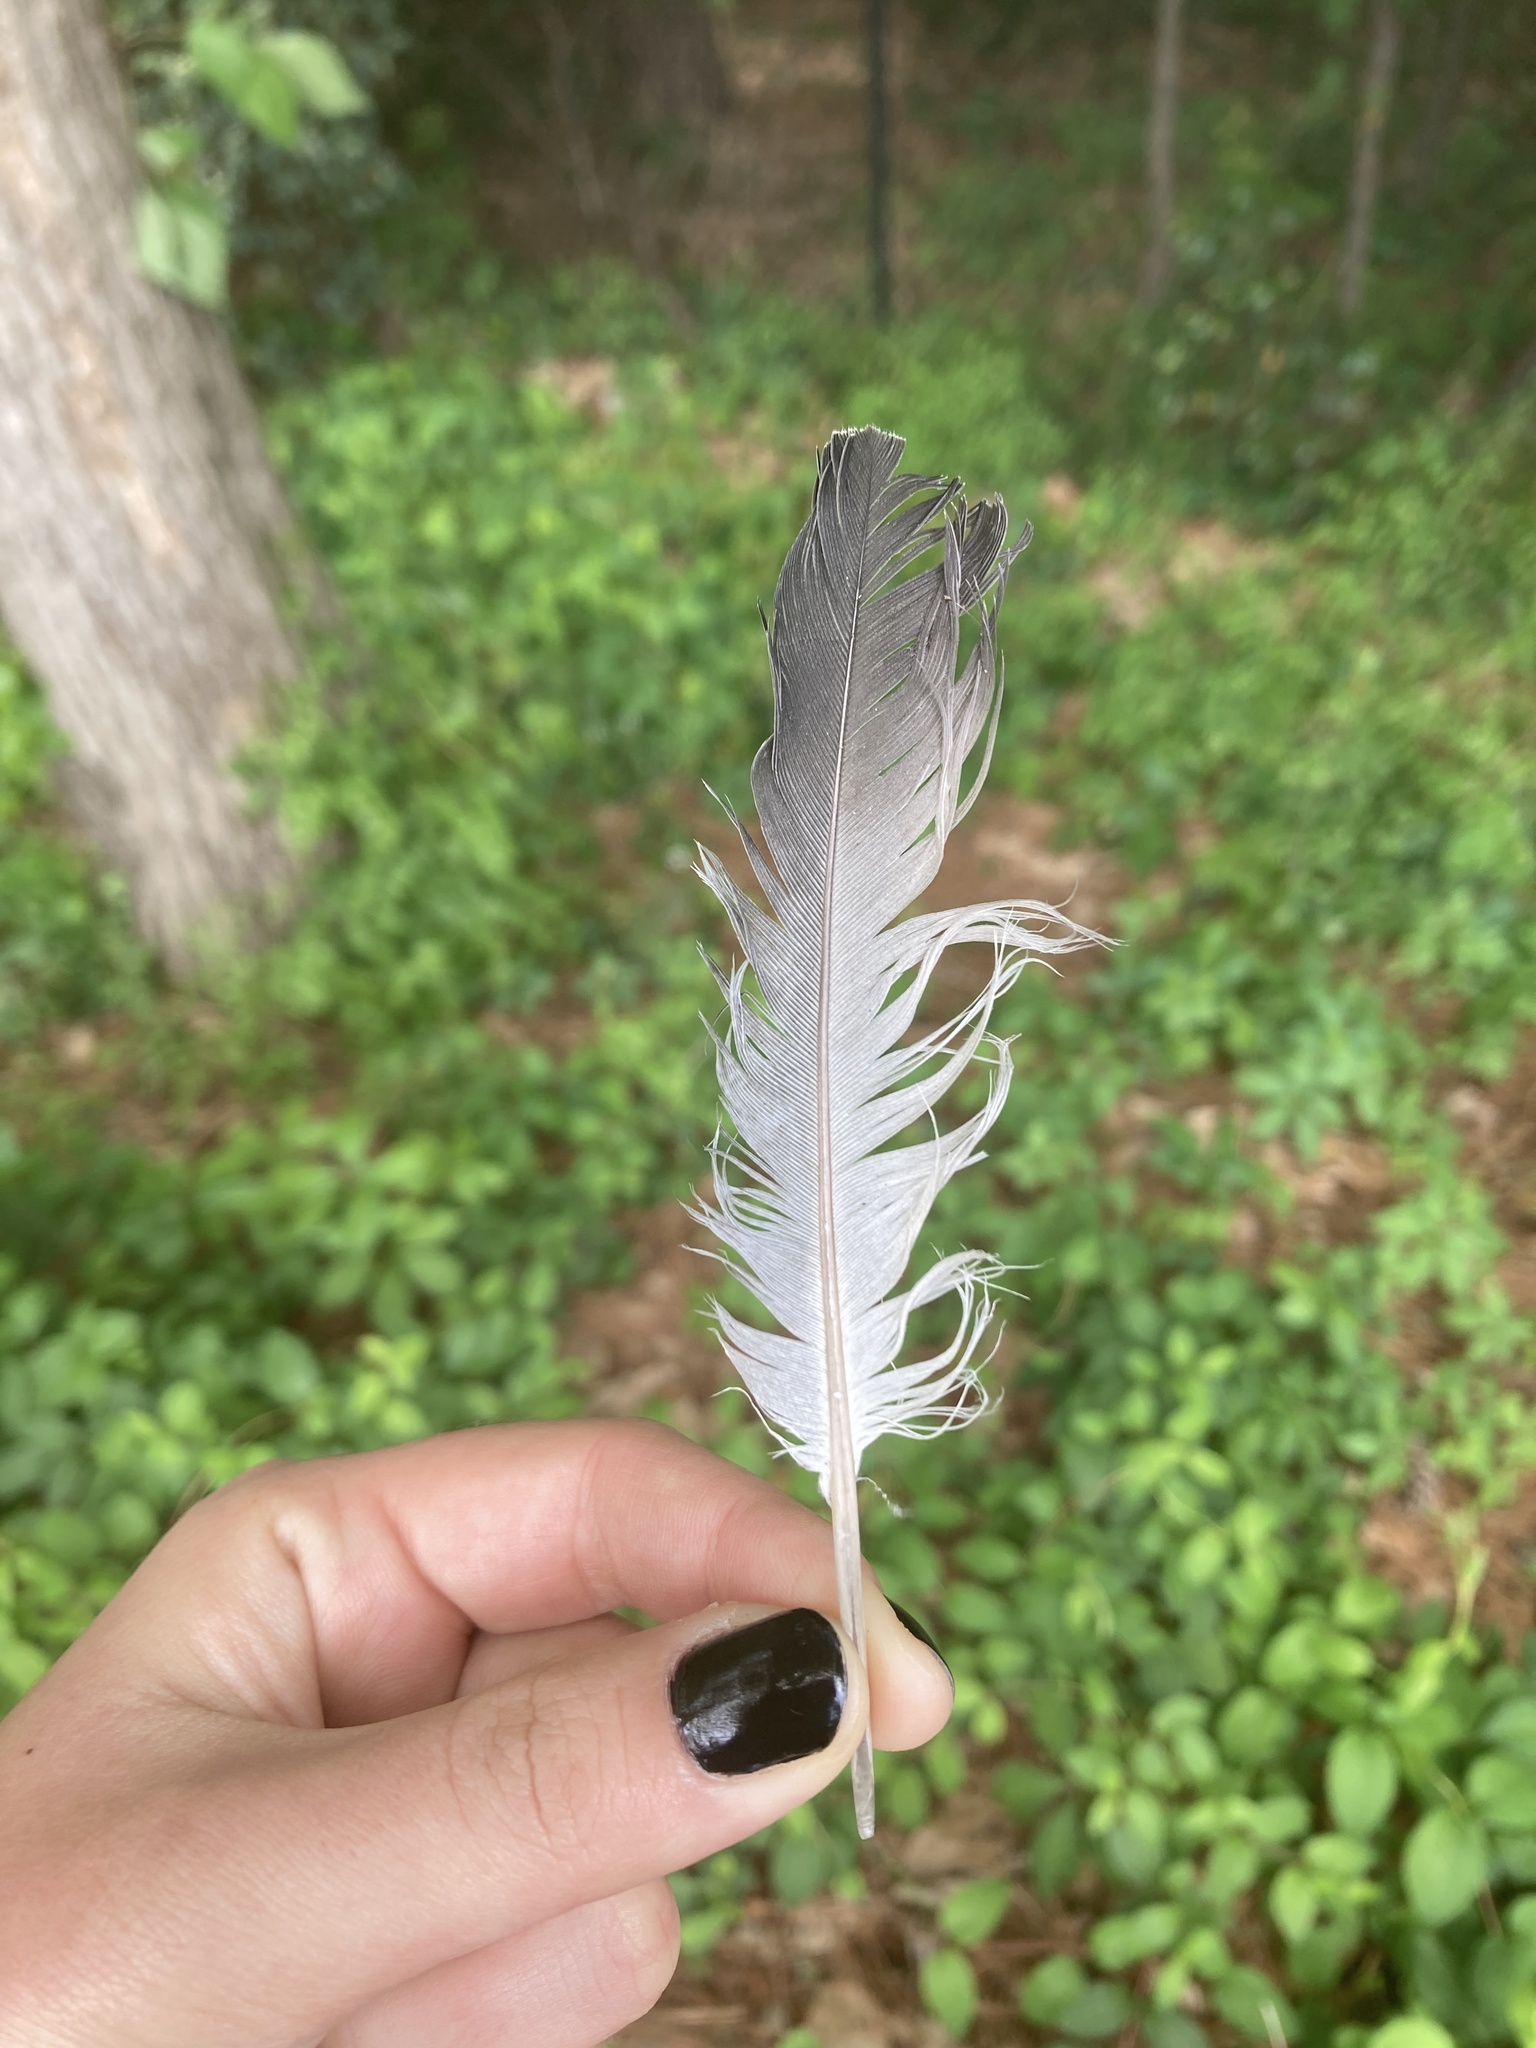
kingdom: Animalia
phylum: Chordata
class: Aves
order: Columbiformes
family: Columbidae
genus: Columba
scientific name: Columba livia
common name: Rock pigeon
